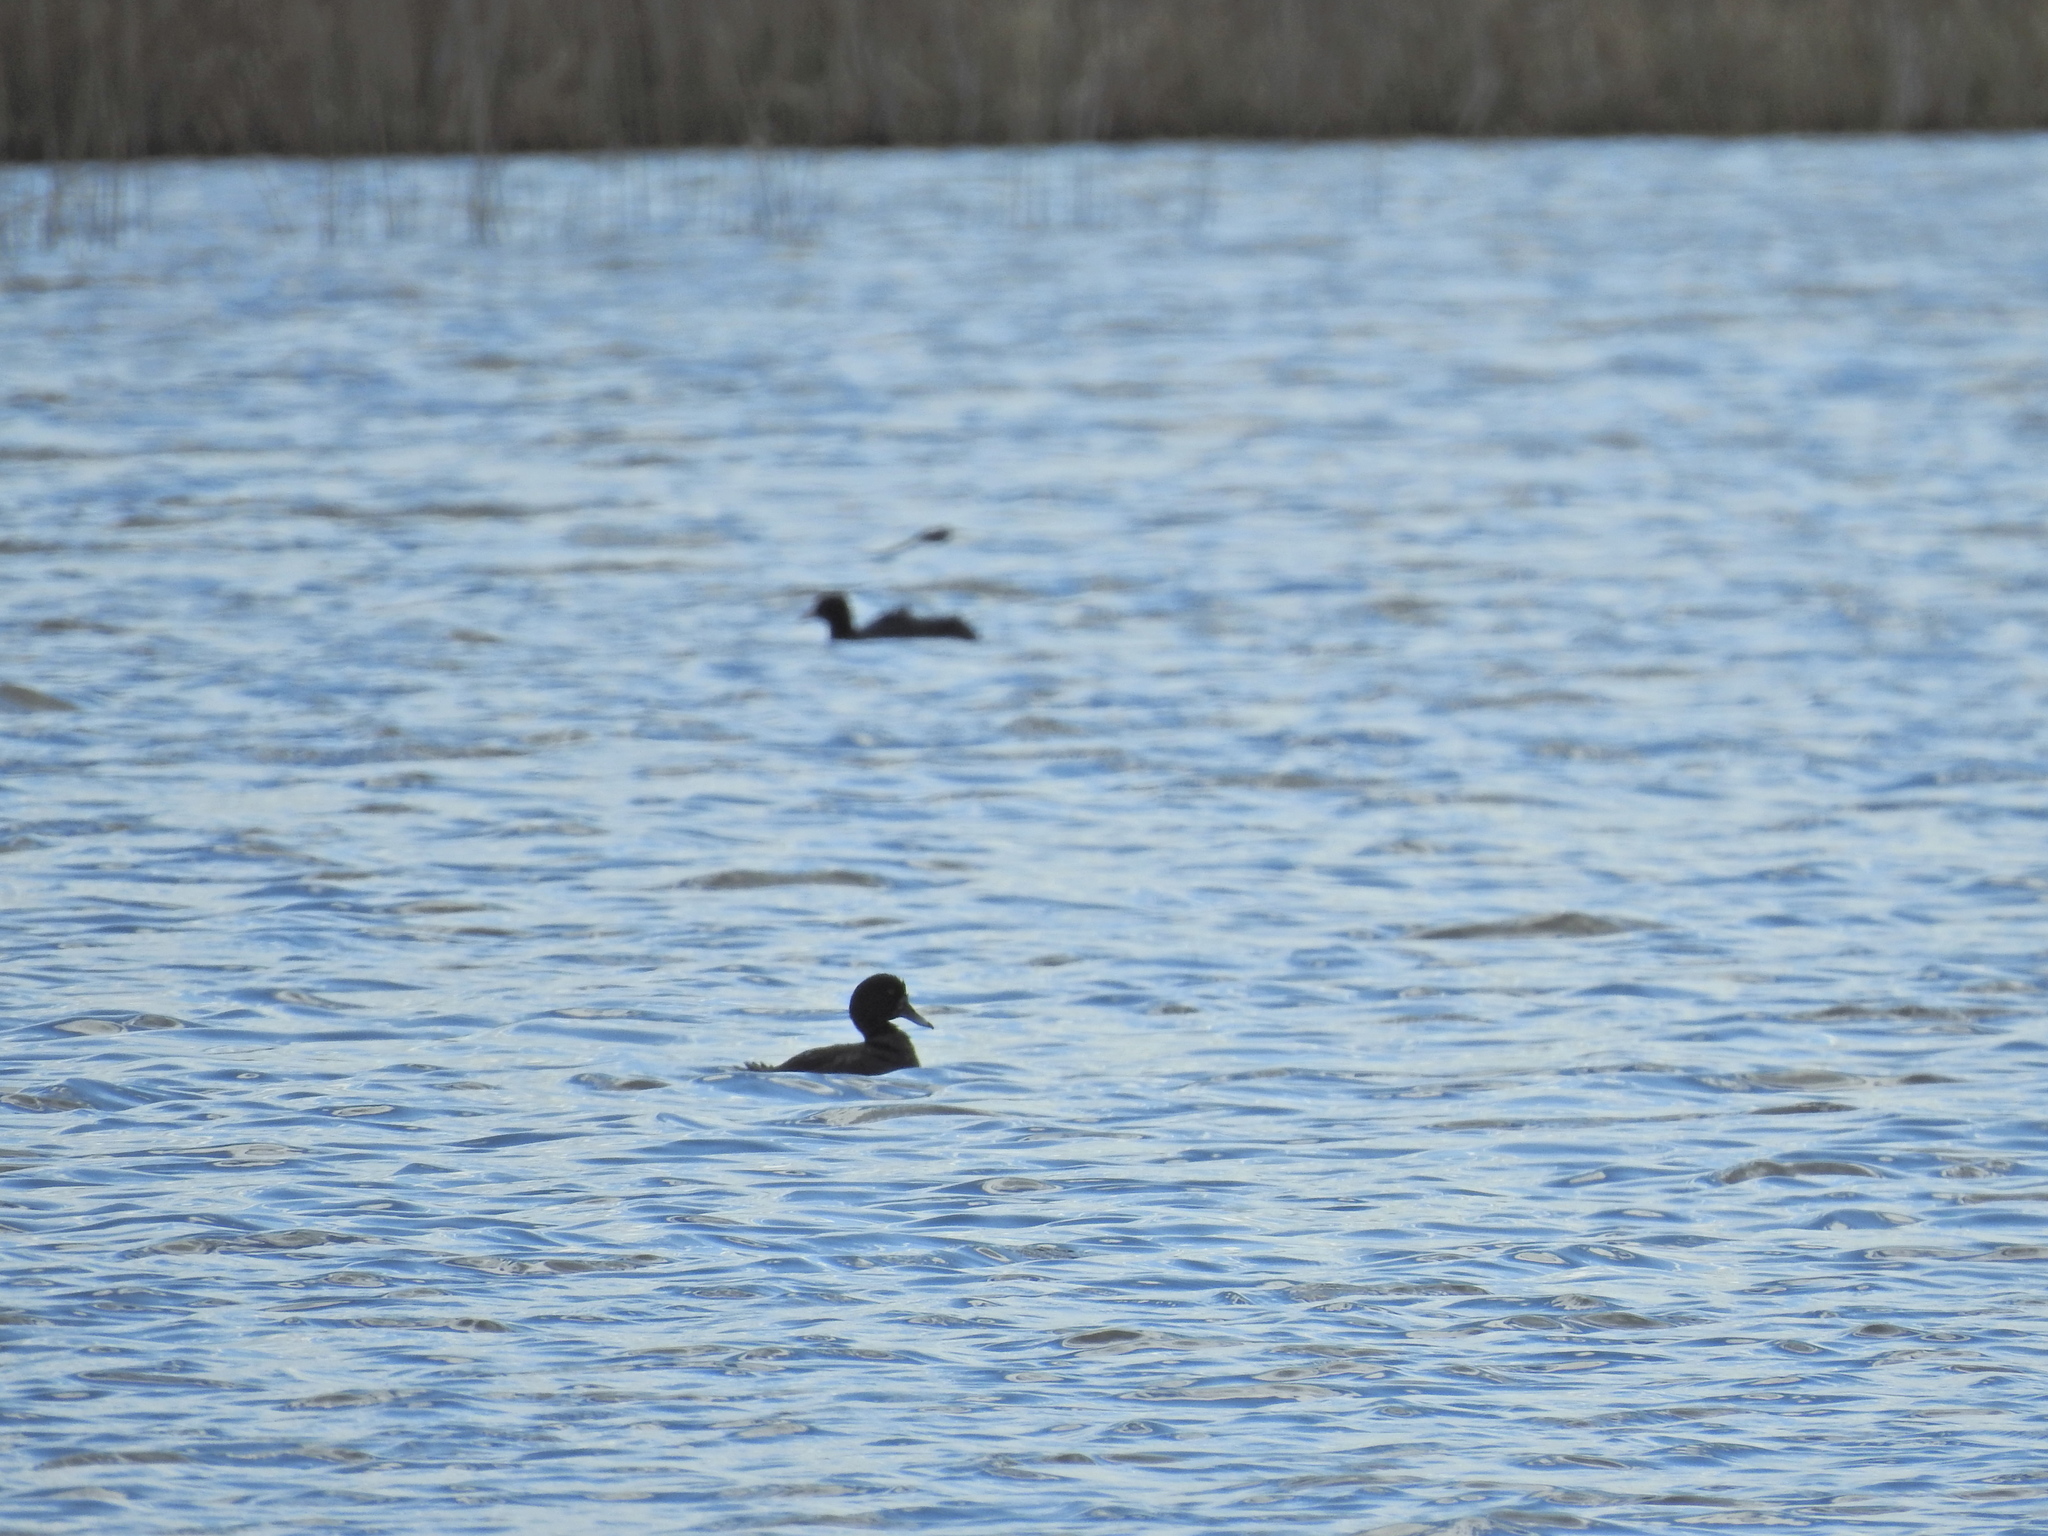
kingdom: Animalia
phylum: Chordata
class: Aves
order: Anseriformes
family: Anatidae
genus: Aythya
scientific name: Aythya fuligula
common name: Tufted duck
